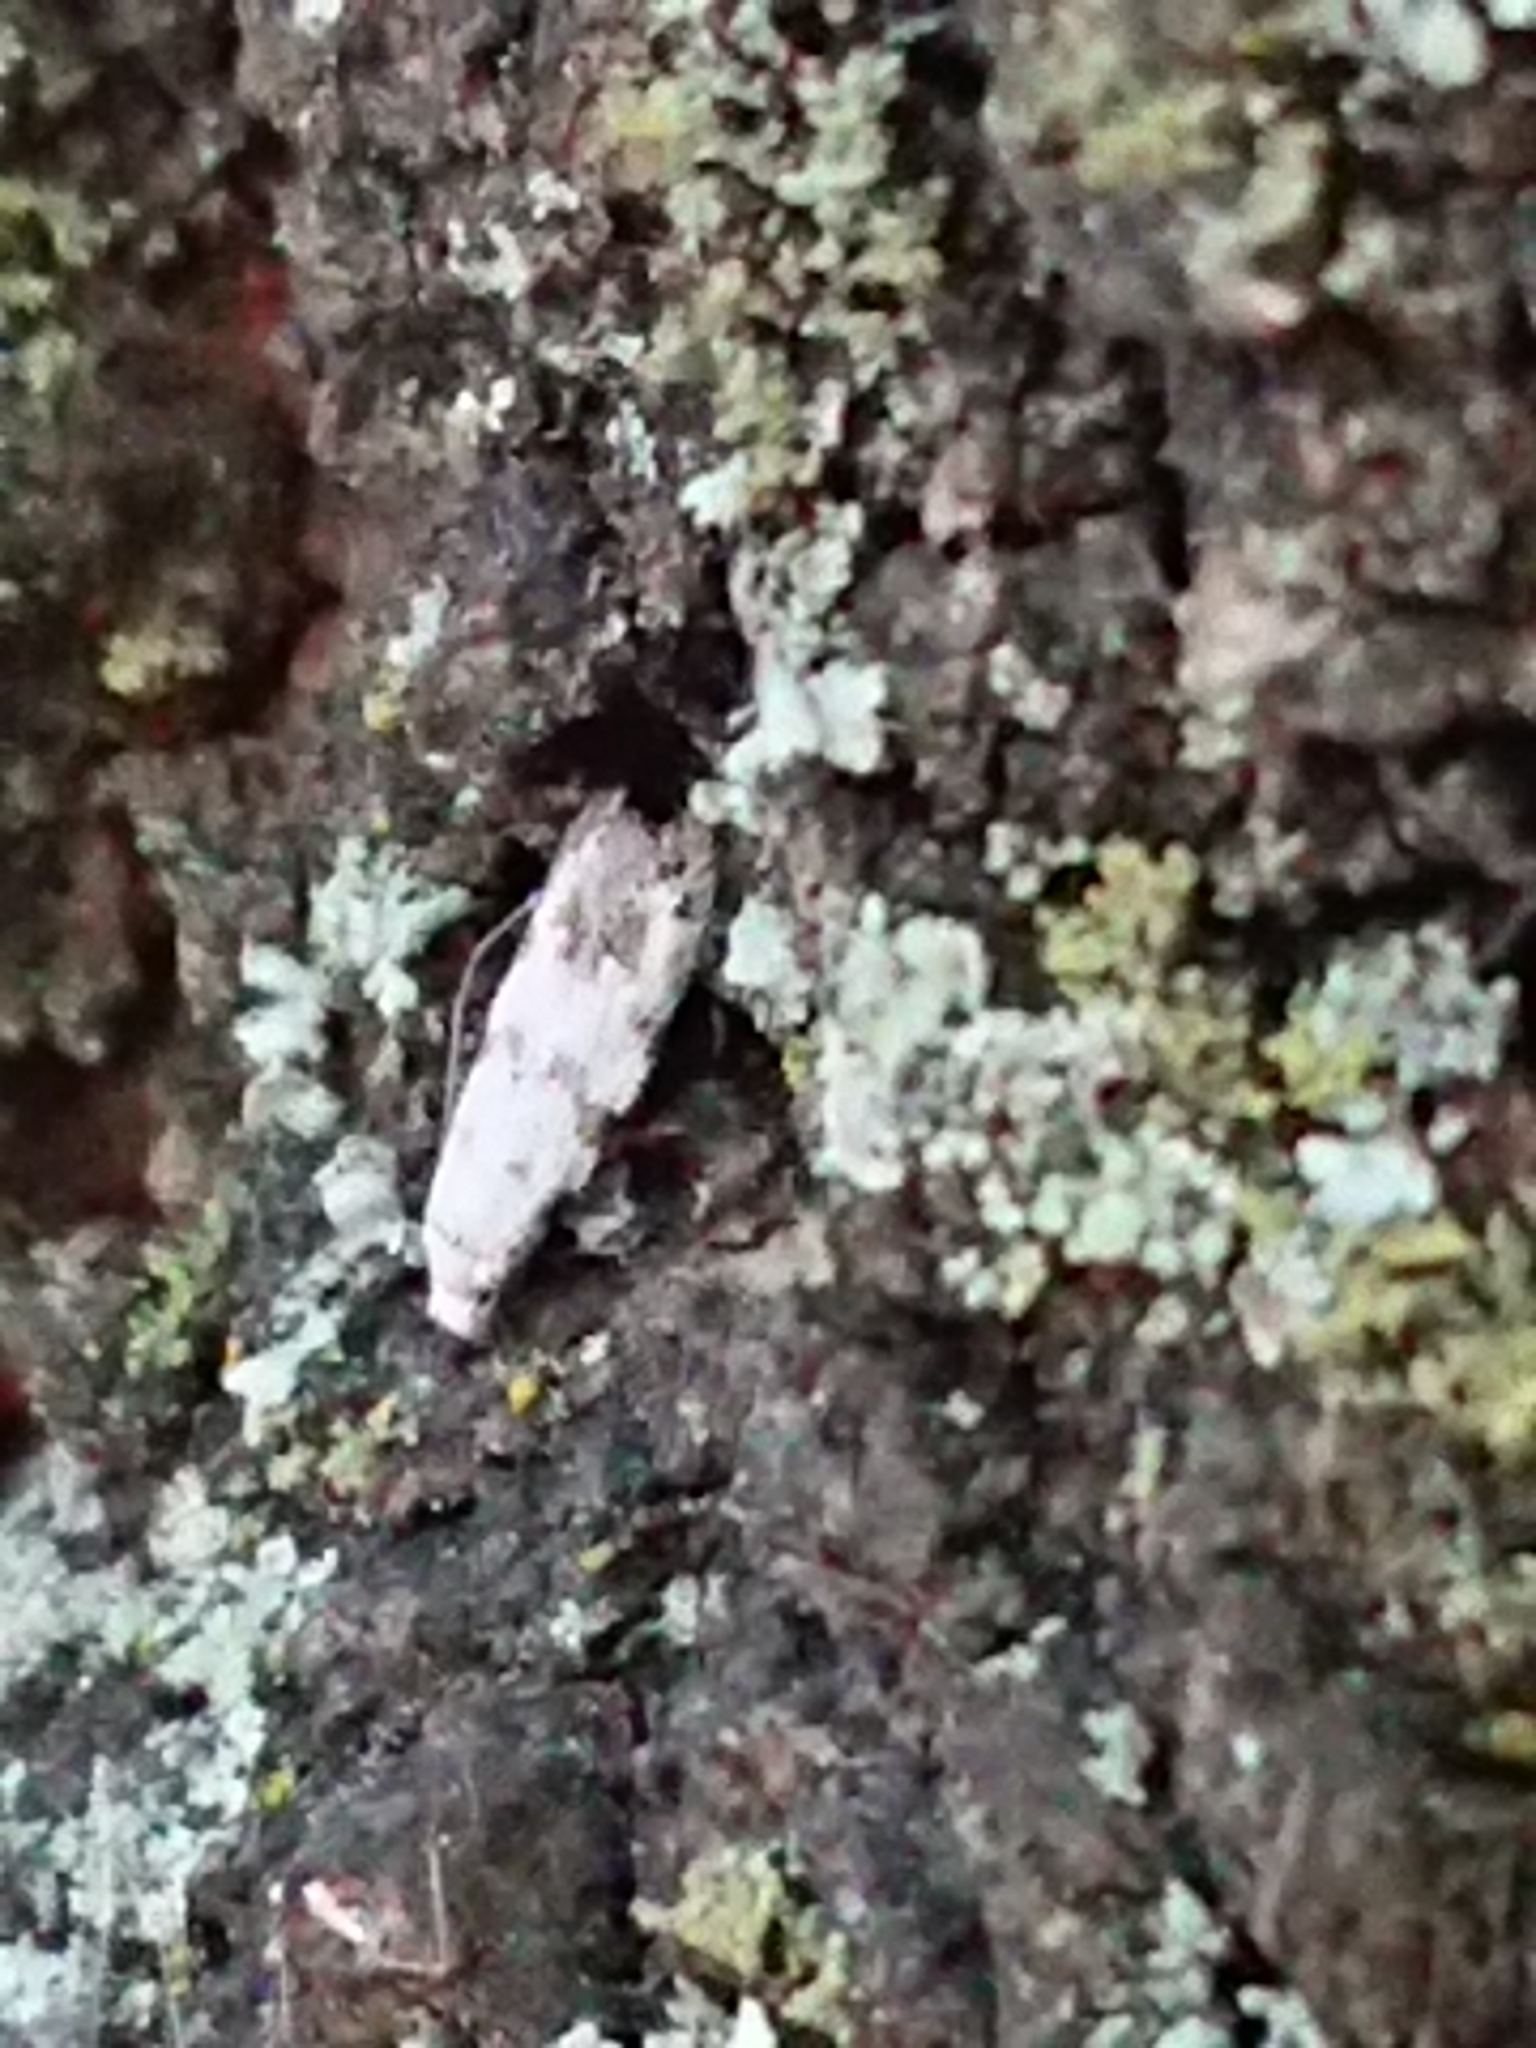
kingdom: Animalia
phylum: Arthropoda
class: Insecta
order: Lepidoptera
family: Tineidae
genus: Crypsitricha
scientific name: Crypsitricha stereota
